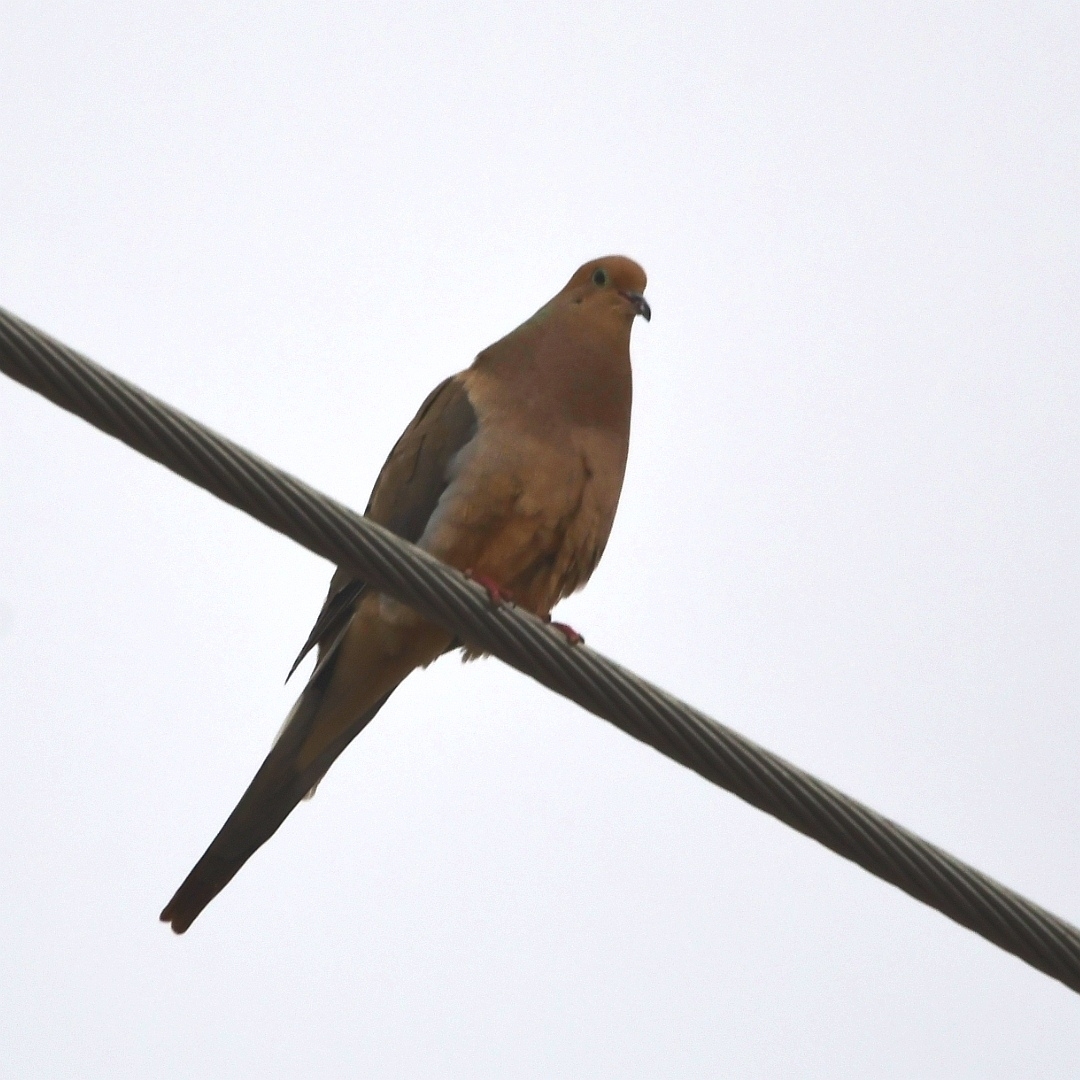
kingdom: Animalia
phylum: Chordata
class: Aves
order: Columbiformes
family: Columbidae
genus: Zenaida
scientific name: Zenaida macroura
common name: Mourning dove
